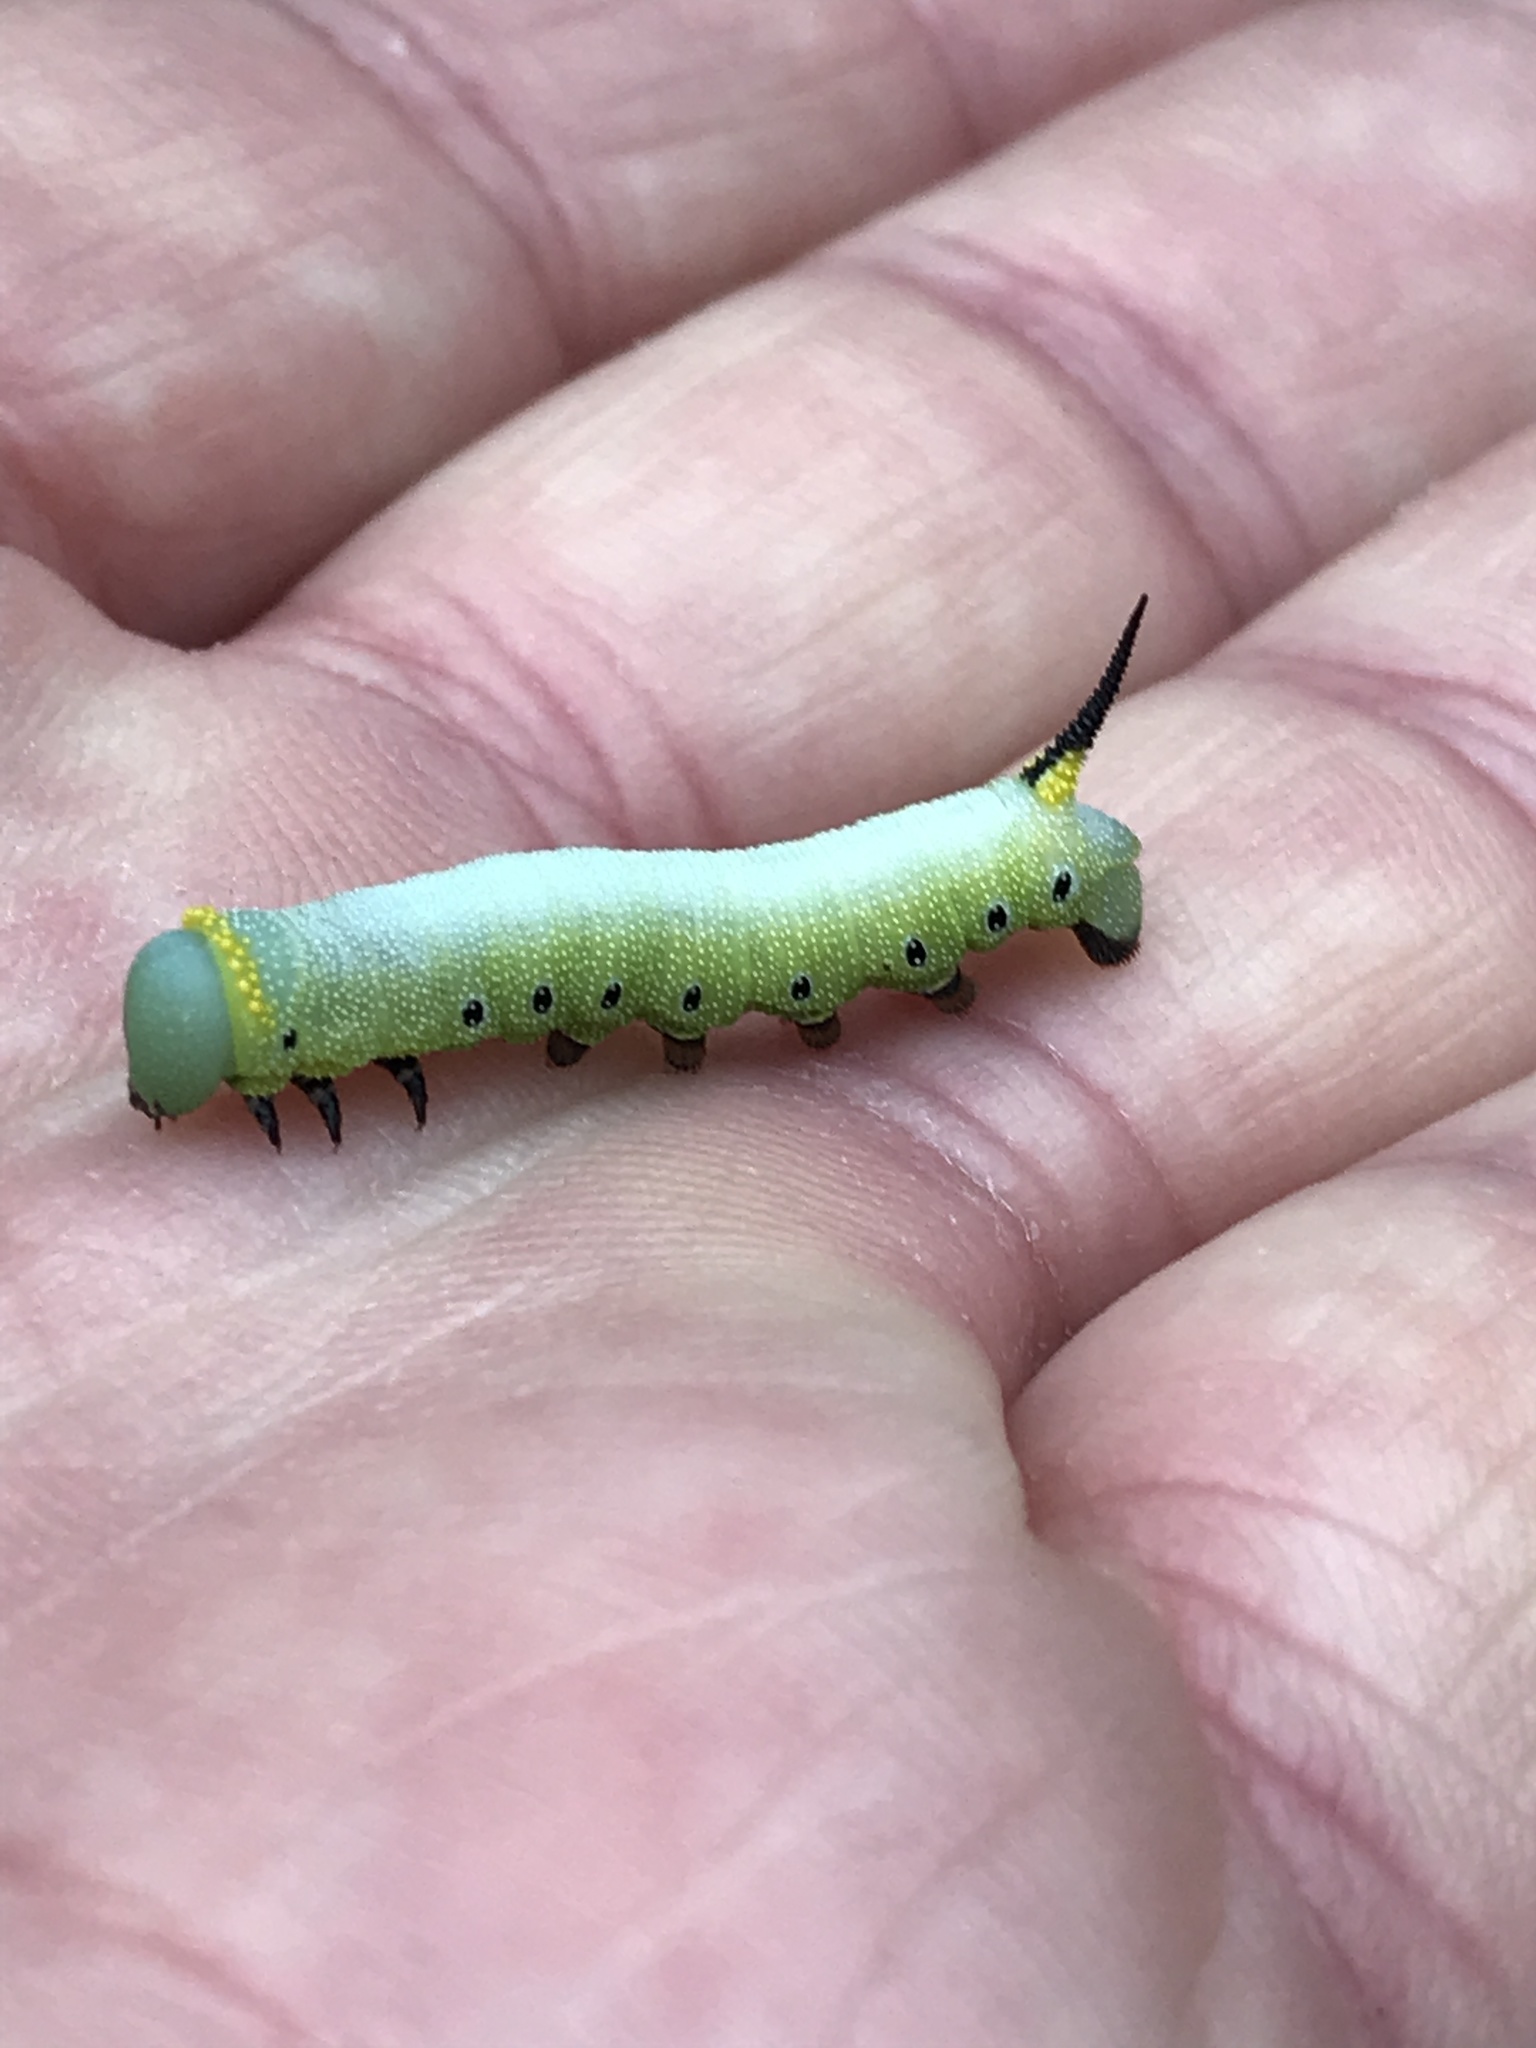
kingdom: Animalia
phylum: Arthropoda
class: Insecta
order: Lepidoptera
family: Sphingidae
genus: Hemaris
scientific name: Hemaris diffinis
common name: Bumblebee moth
